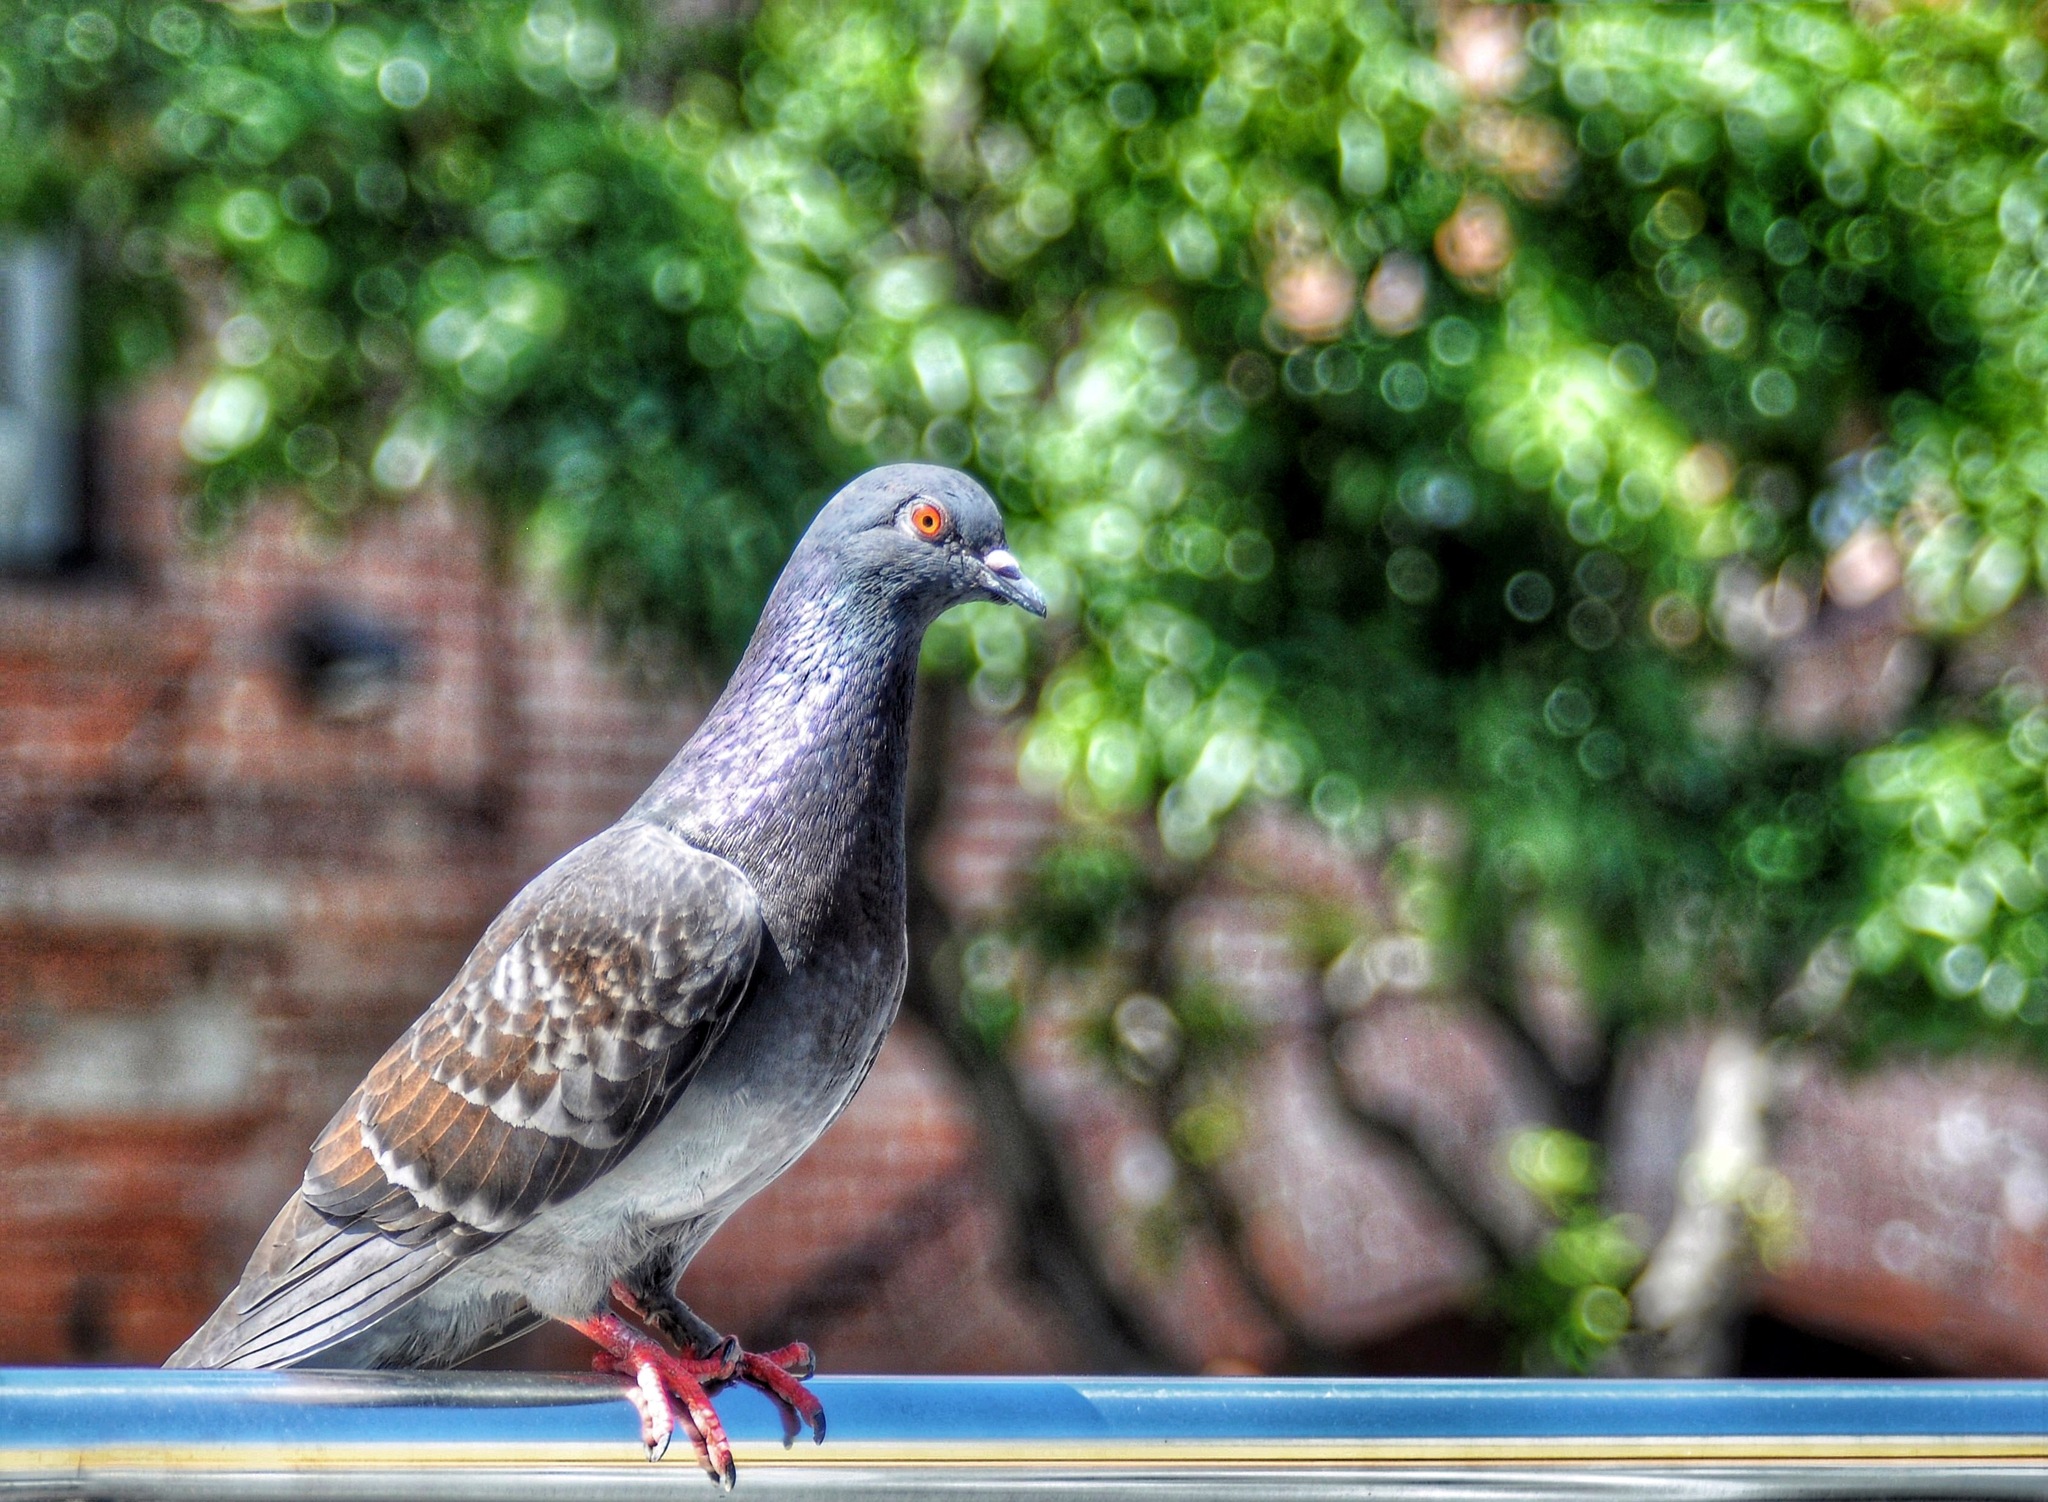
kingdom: Animalia
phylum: Chordata
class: Aves
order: Columbiformes
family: Columbidae
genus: Columba
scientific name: Columba livia
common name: Rock pigeon
